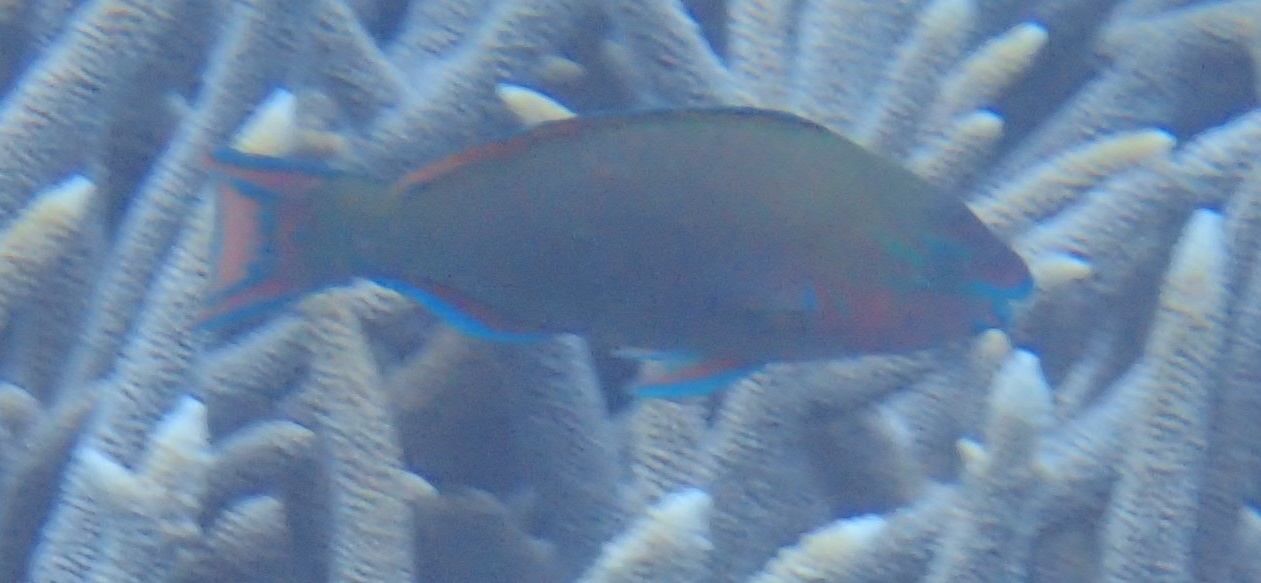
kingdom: Animalia
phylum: Chordata
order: Perciformes
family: Scaridae
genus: Scarus
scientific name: Scarus psittacus
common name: Palenose parrotfish
